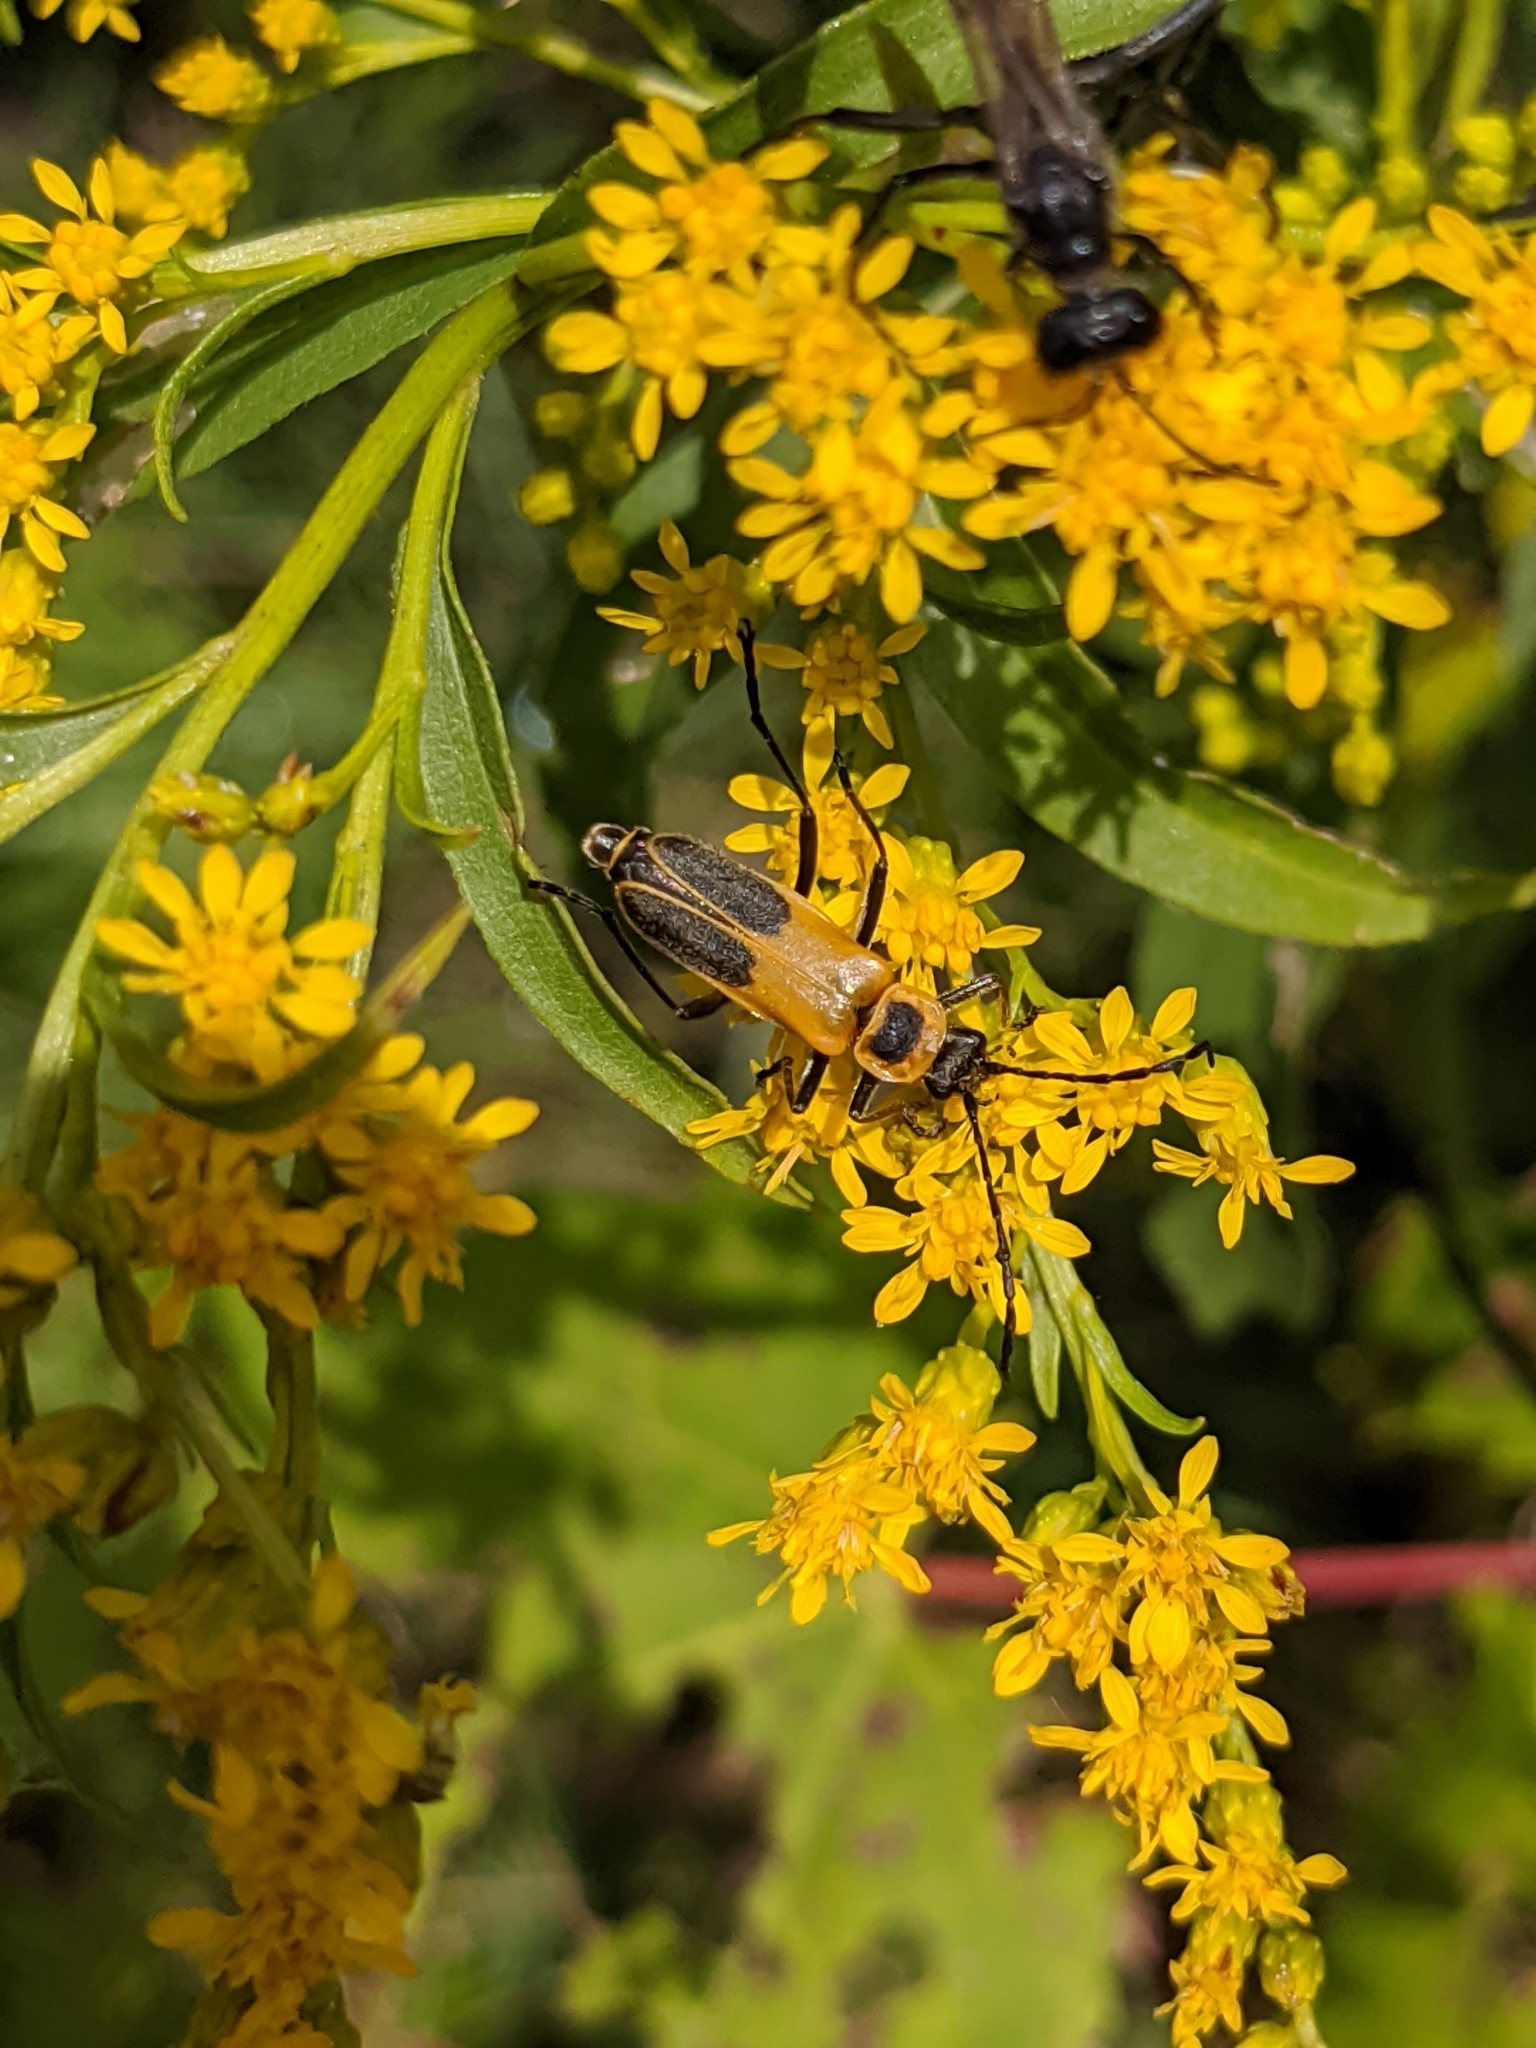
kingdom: Animalia
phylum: Arthropoda
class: Insecta
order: Coleoptera
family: Cantharidae
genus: Chauliognathus
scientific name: Chauliognathus pensylvanicus
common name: Goldenrod soldier beetle
